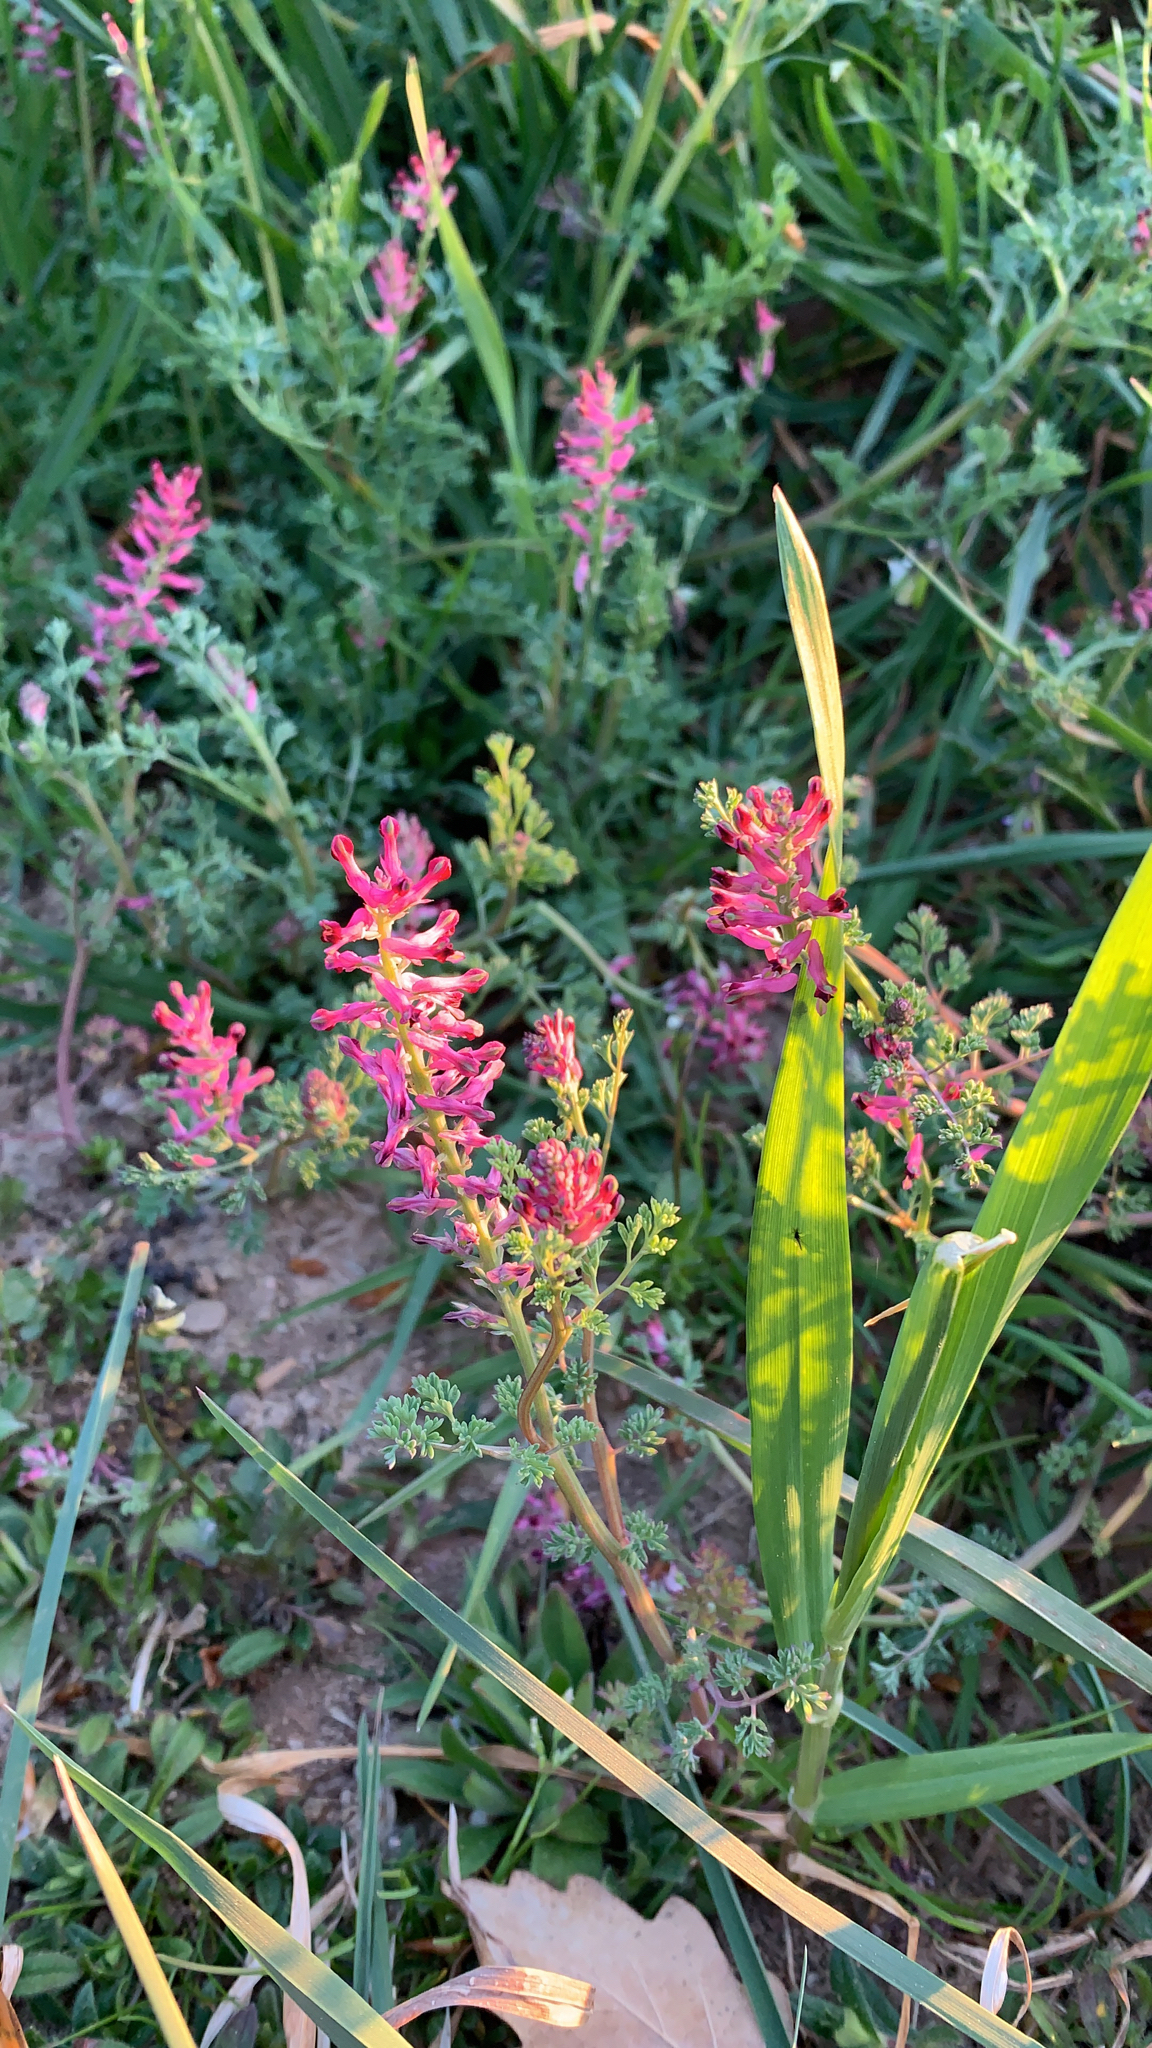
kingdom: Plantae
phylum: Tracheophyta
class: Magnoliopsida
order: Ranunculales
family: Papaveraceae
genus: Fumaria
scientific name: Fumaria officinalis
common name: Common fumitory
